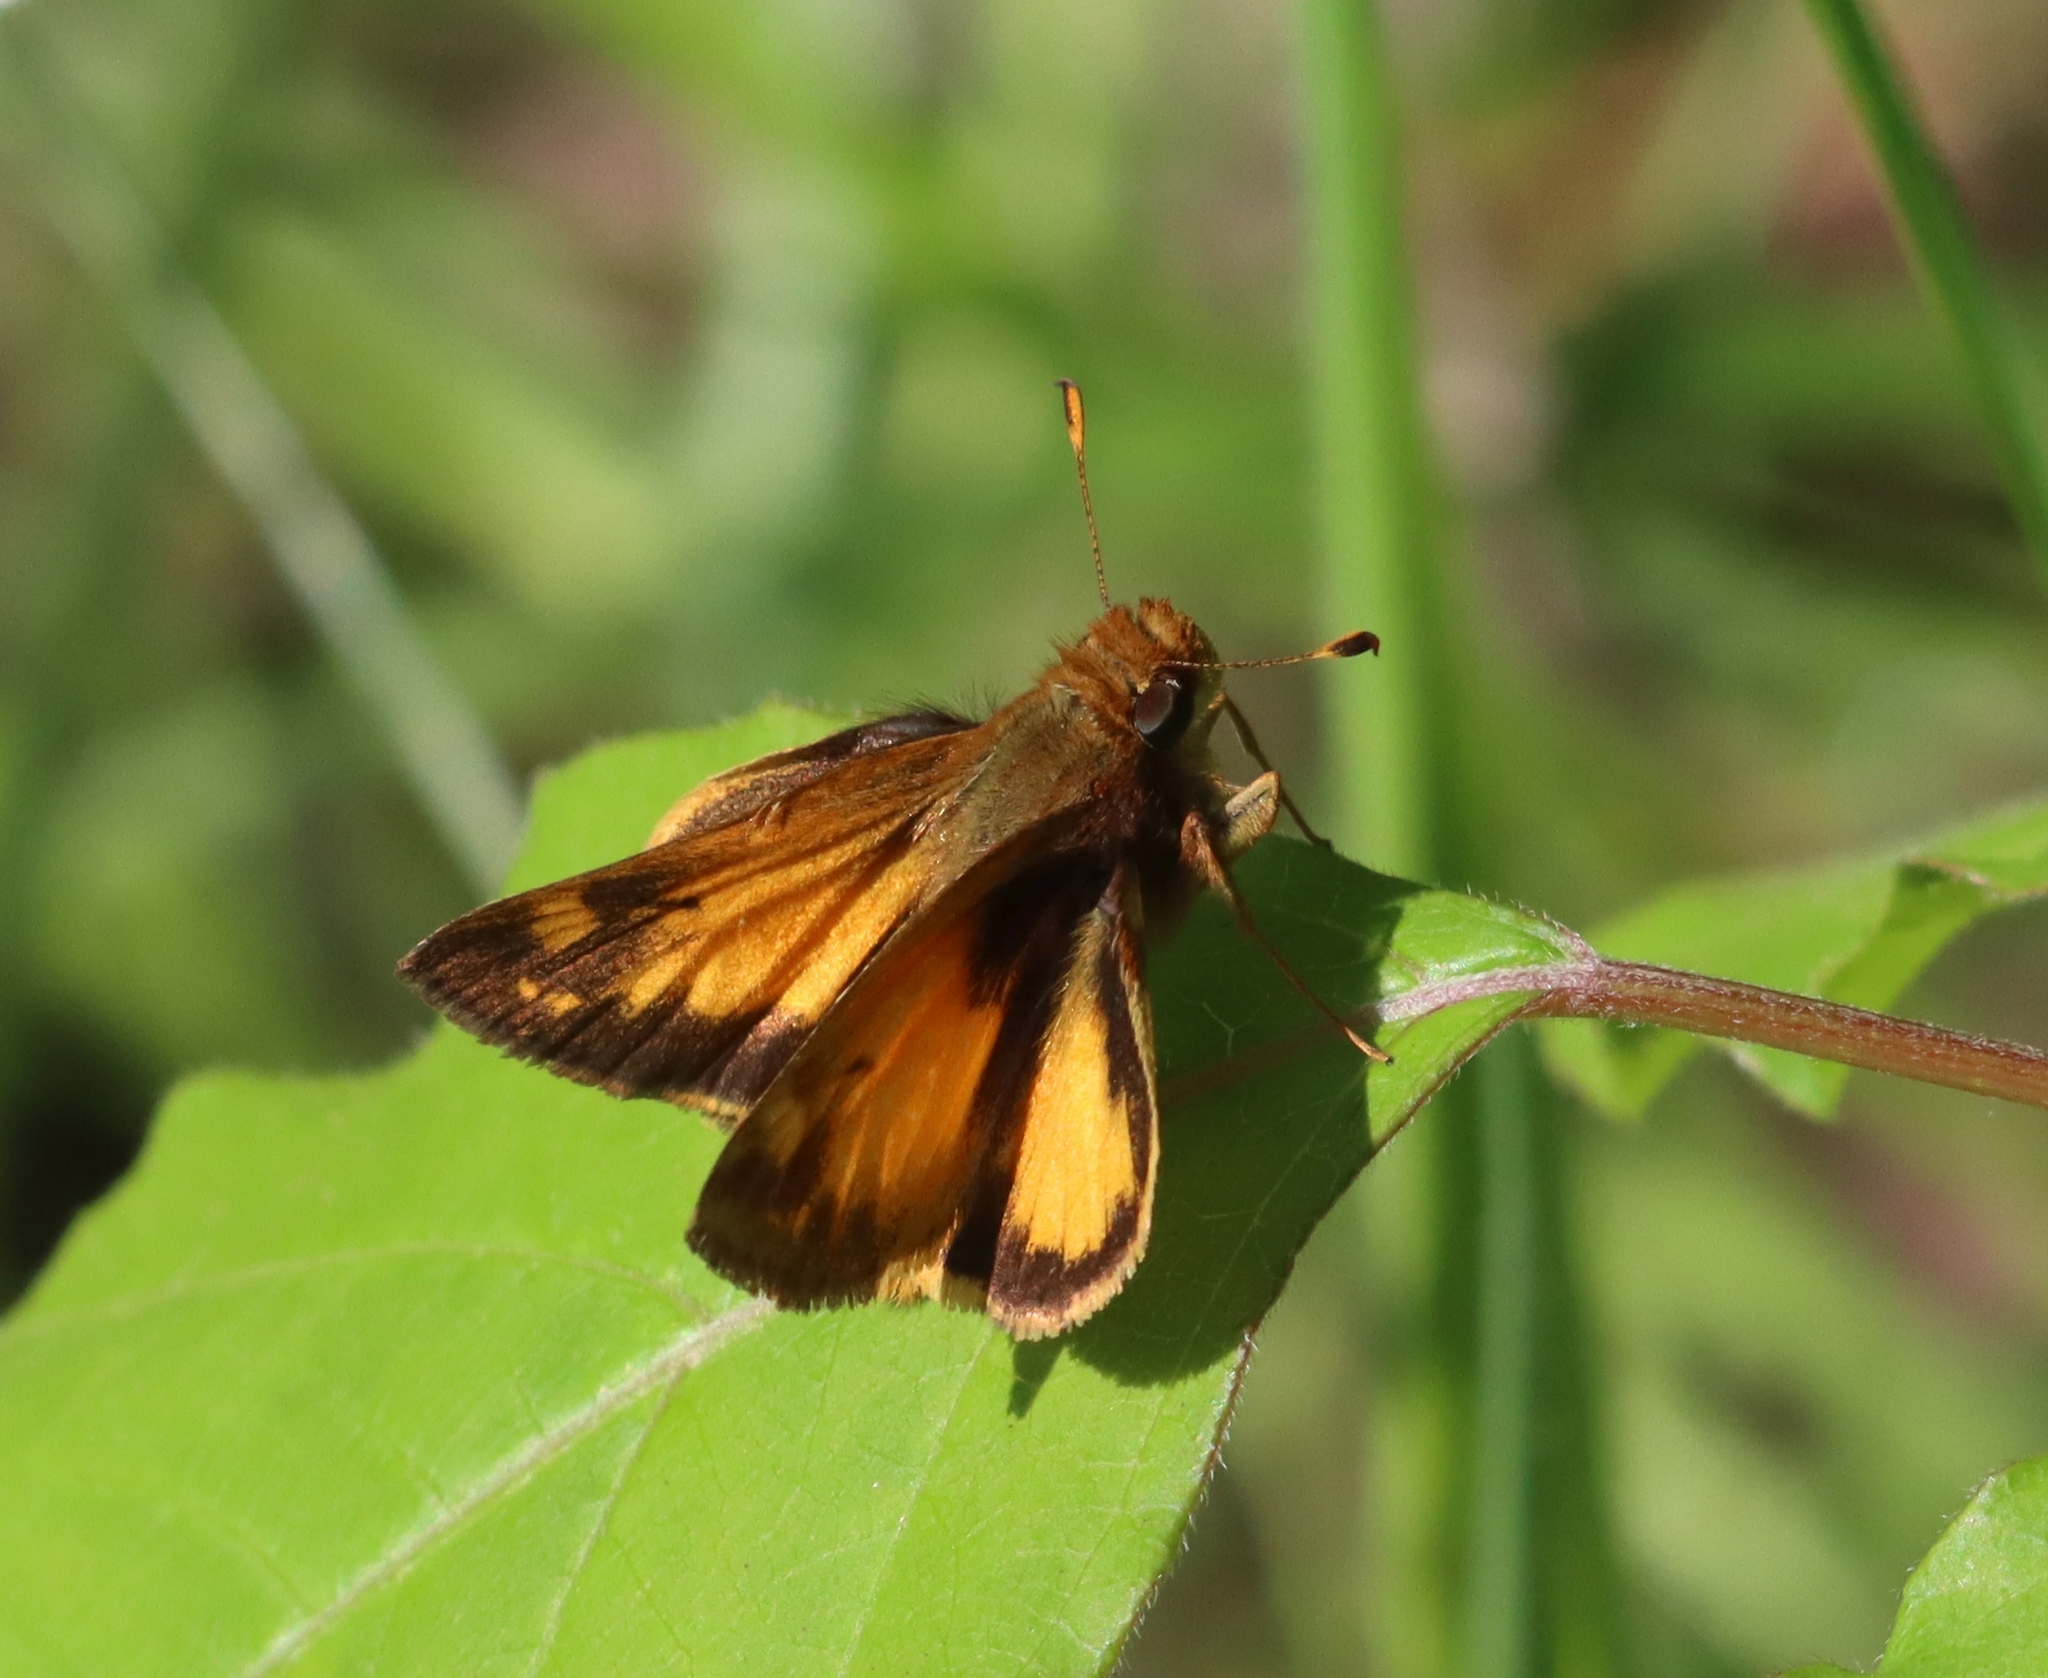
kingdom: Animalia
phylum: Arthropoda
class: Insecta
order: Lepidoptera
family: Hesperiidae
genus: Lon
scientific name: Lon zabulon
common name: Zabulon skipper
